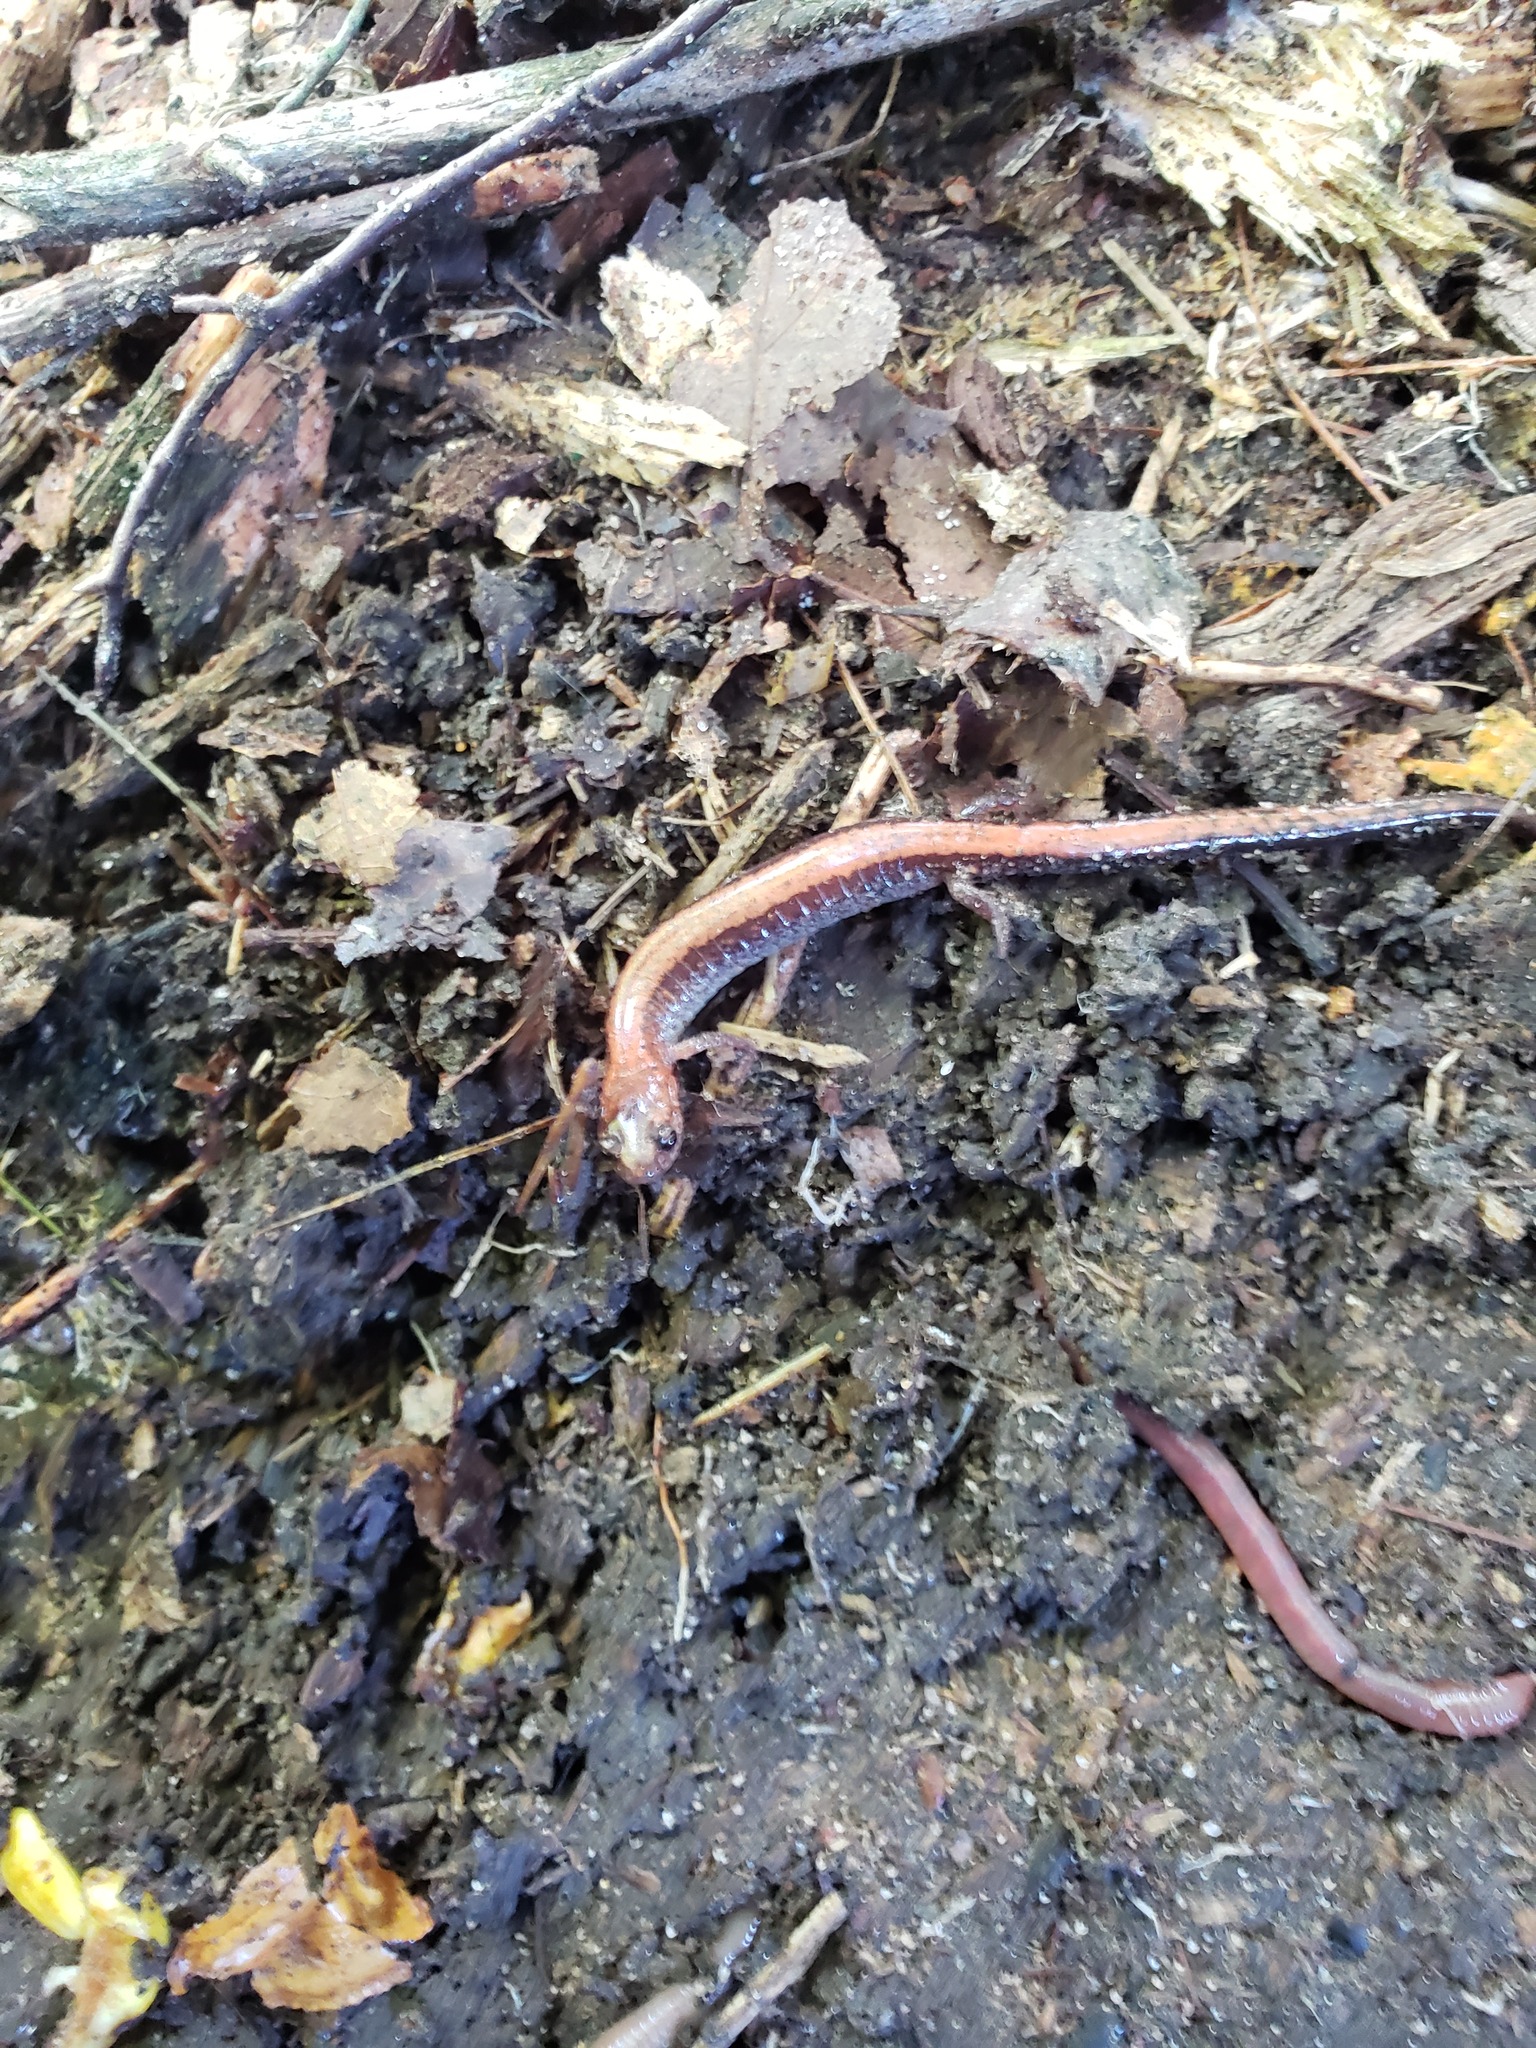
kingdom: Animalia
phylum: Chordata
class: Amphibia
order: Caudata
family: Plethodontidae
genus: Plethodon
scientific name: Plethodon cinereus
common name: Redback salamander
